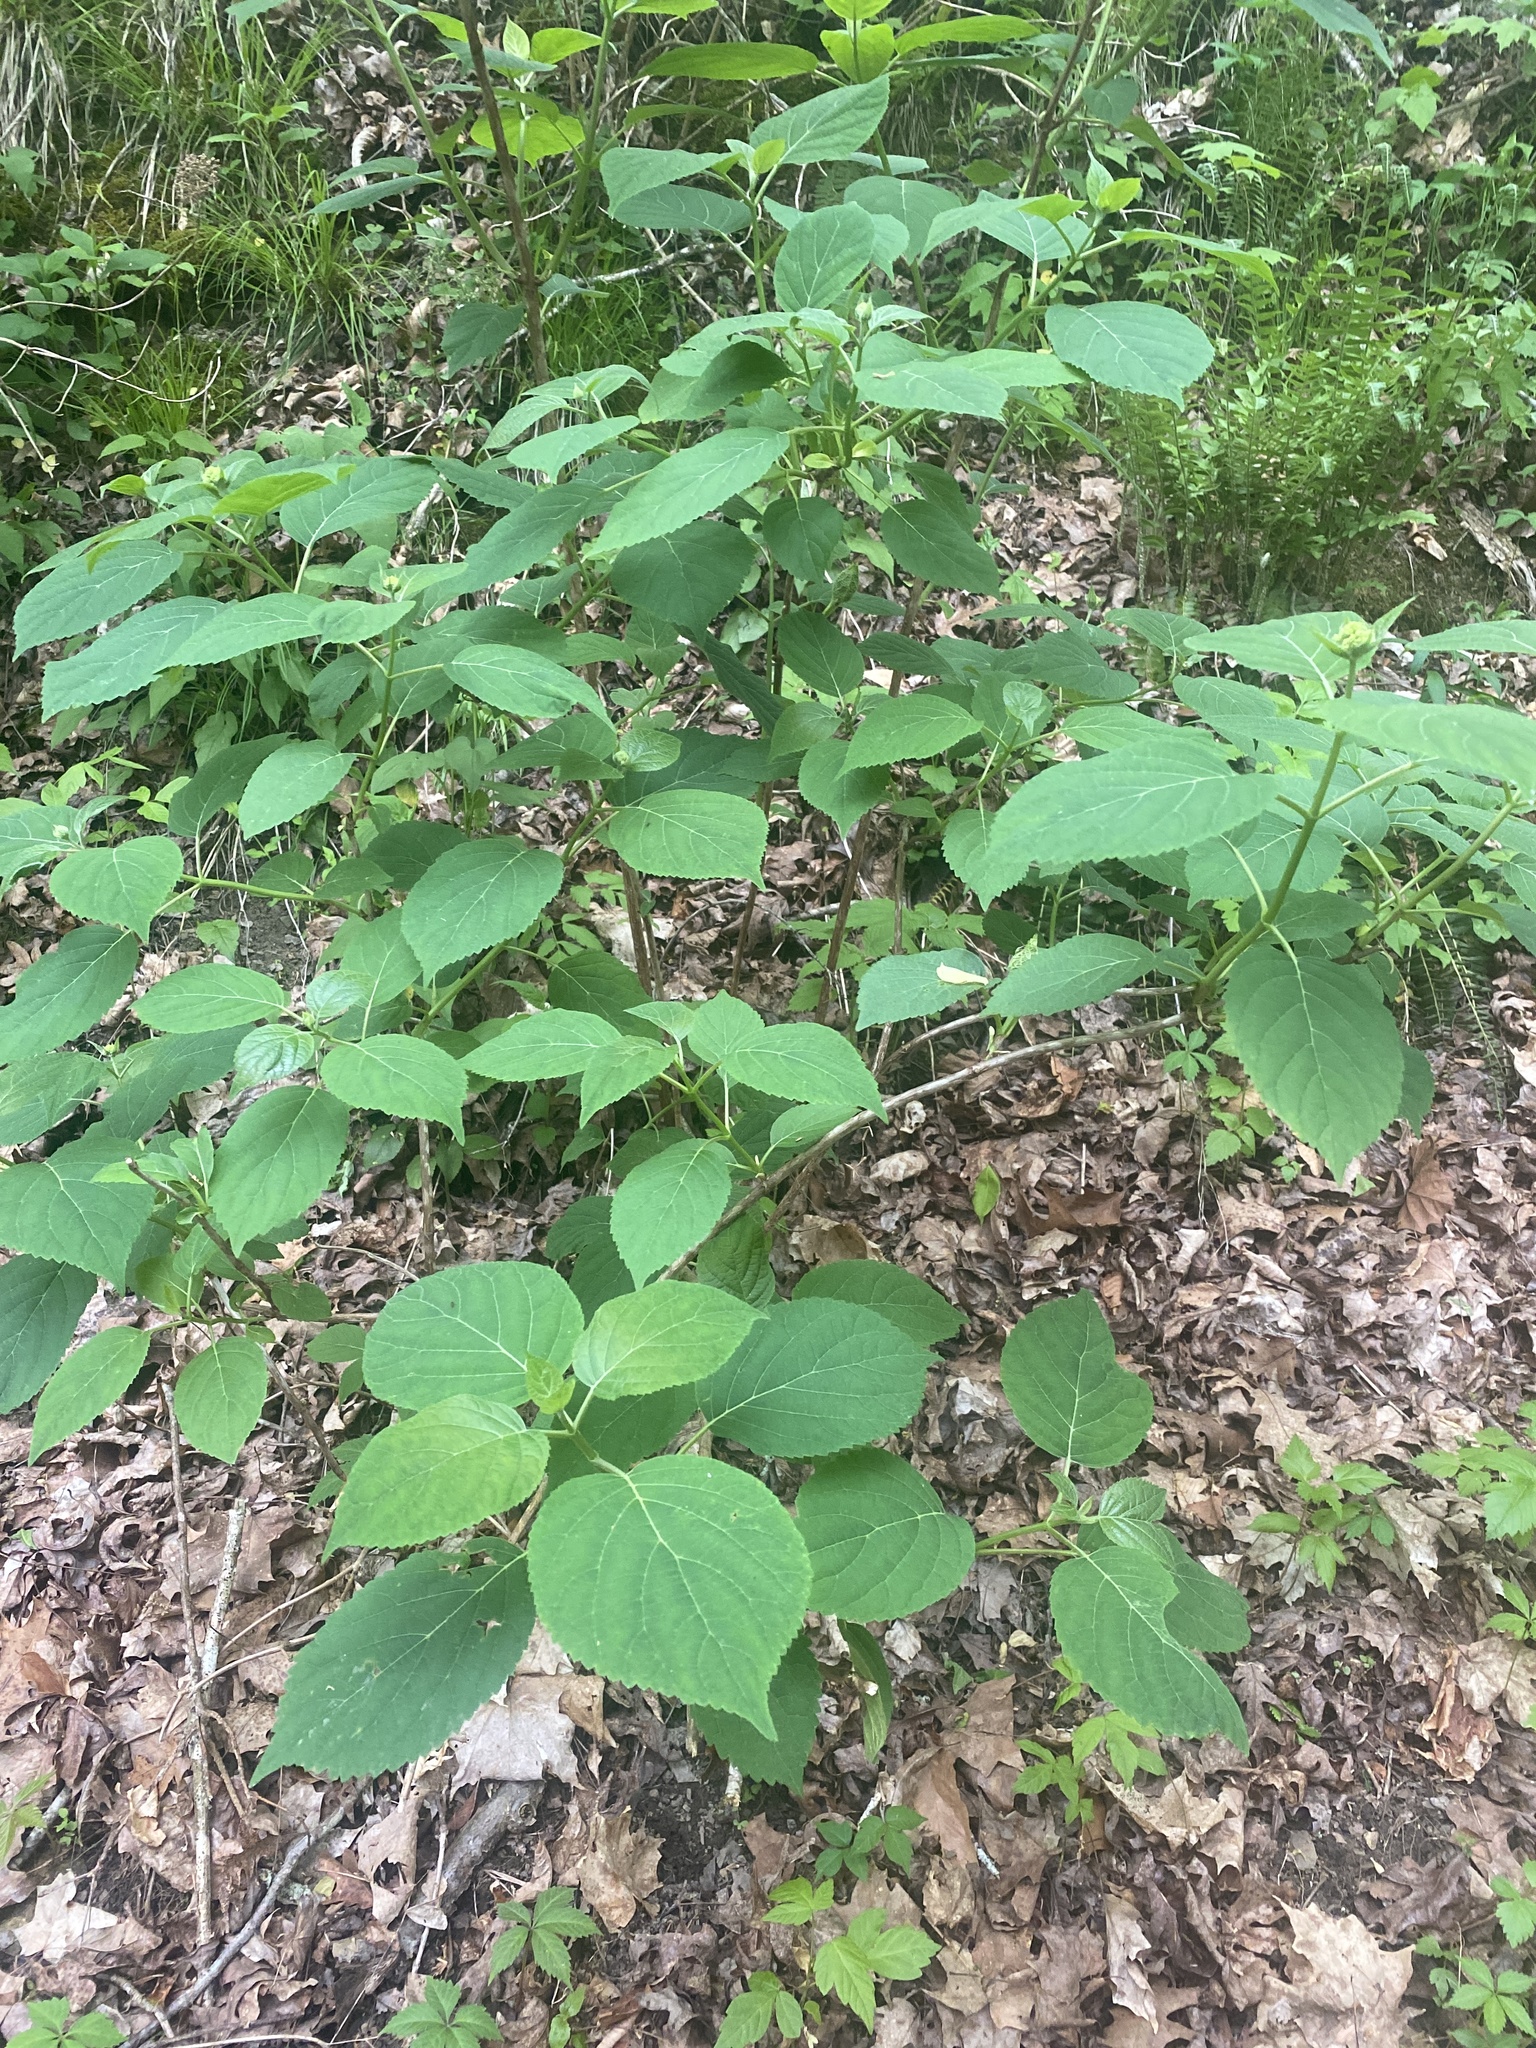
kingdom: Plantae
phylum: Tracheophyta
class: Magnoliopsida
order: Cornales
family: Hydrangeaceae
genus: Hydrangea
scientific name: Hydrangea arborescens
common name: Sevenbark
